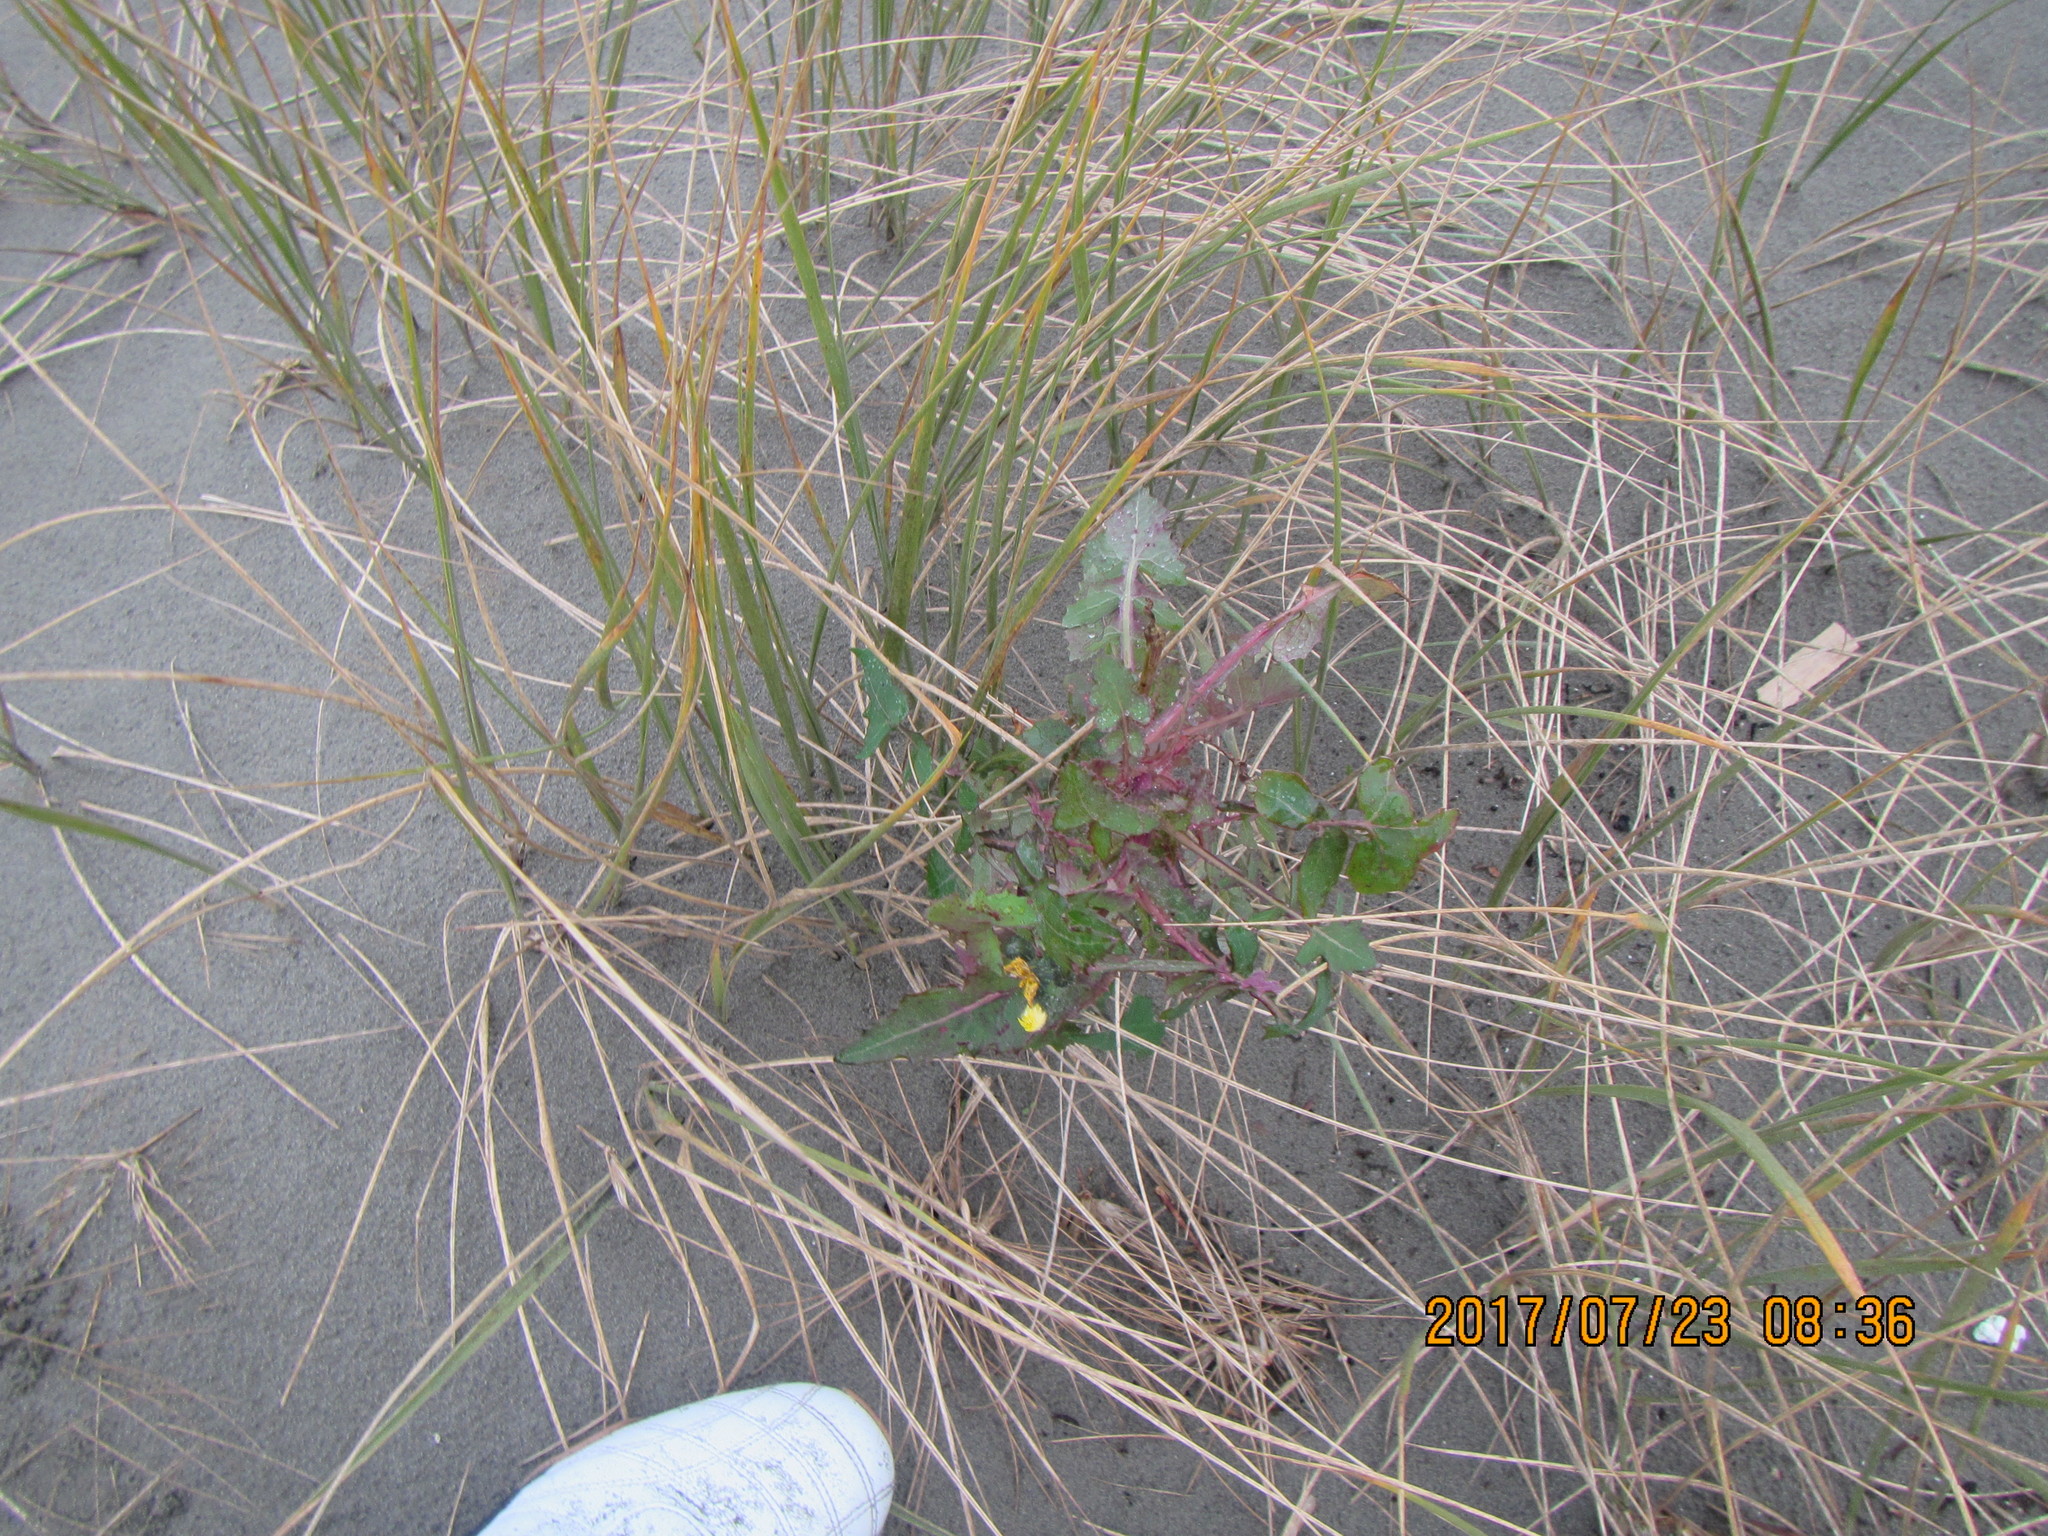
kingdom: Plantae
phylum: Tracheophyta
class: Magnoliopsida
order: Asterales
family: Asteraceae
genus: Sonchus
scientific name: Sonchus oleraceus
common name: Common sowthistle
